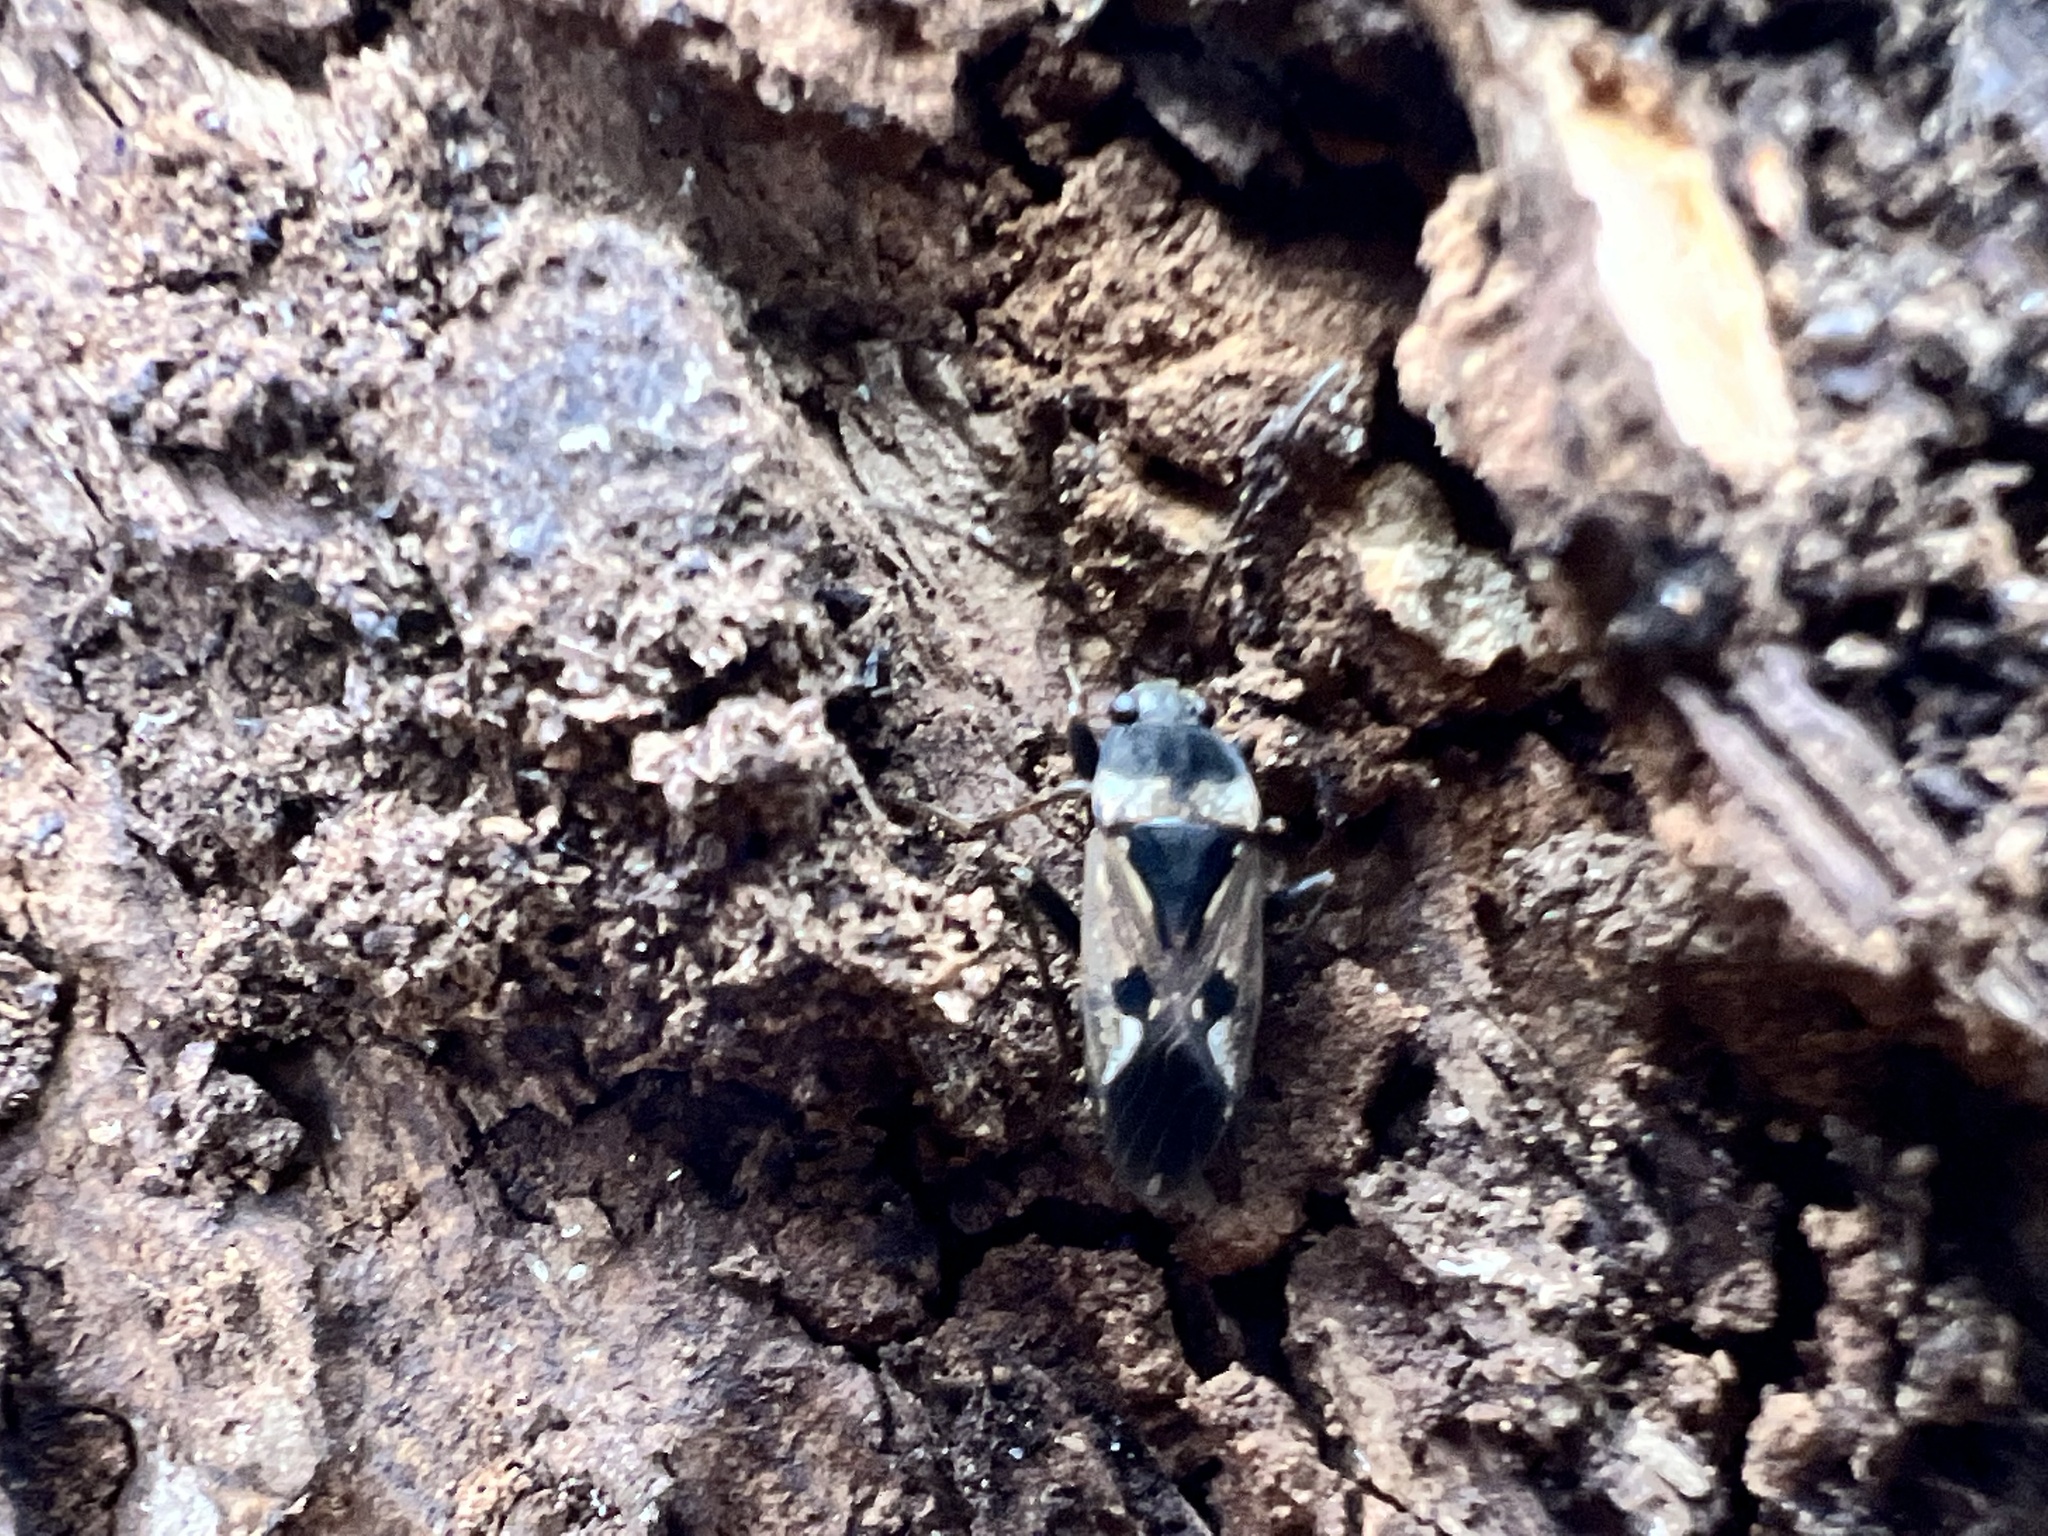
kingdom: Animalia
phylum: Arthropoda
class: Insecta
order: Hemiptera
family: Rhyparochromidae
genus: Rhyparochromus
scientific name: Rhyparochromus vulgaris
